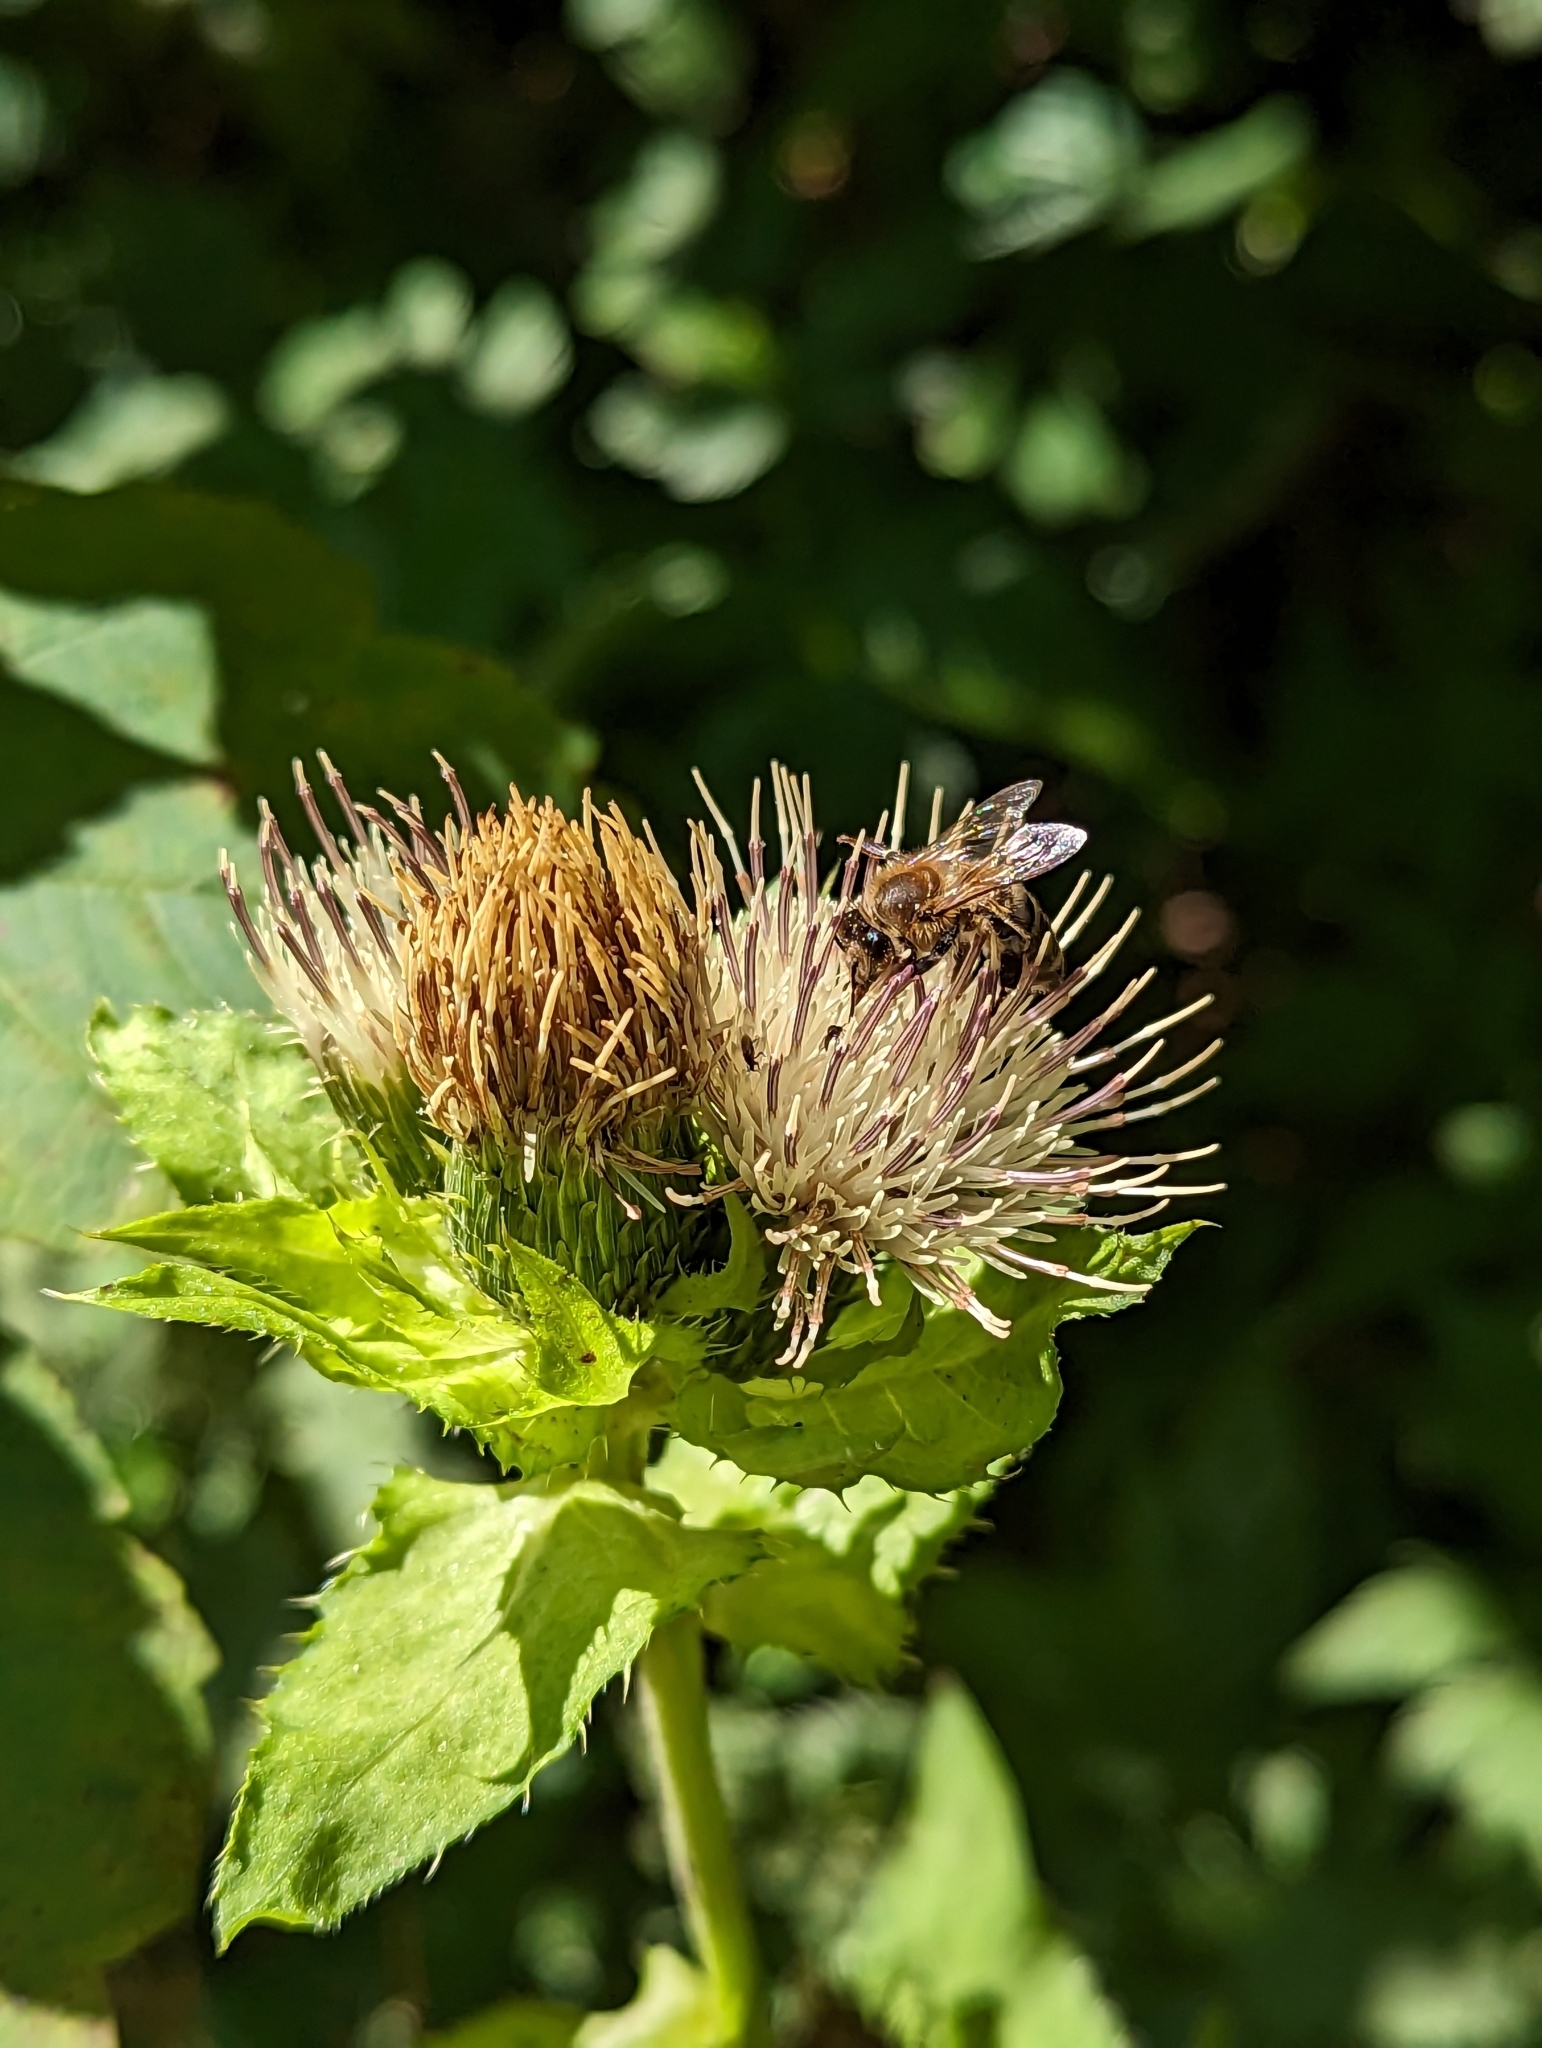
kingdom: Animalia
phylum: Arthropoda
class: Insecta
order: Hymenoptera
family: Apidae
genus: Apis
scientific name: Apis mellifera
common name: Honey bee
